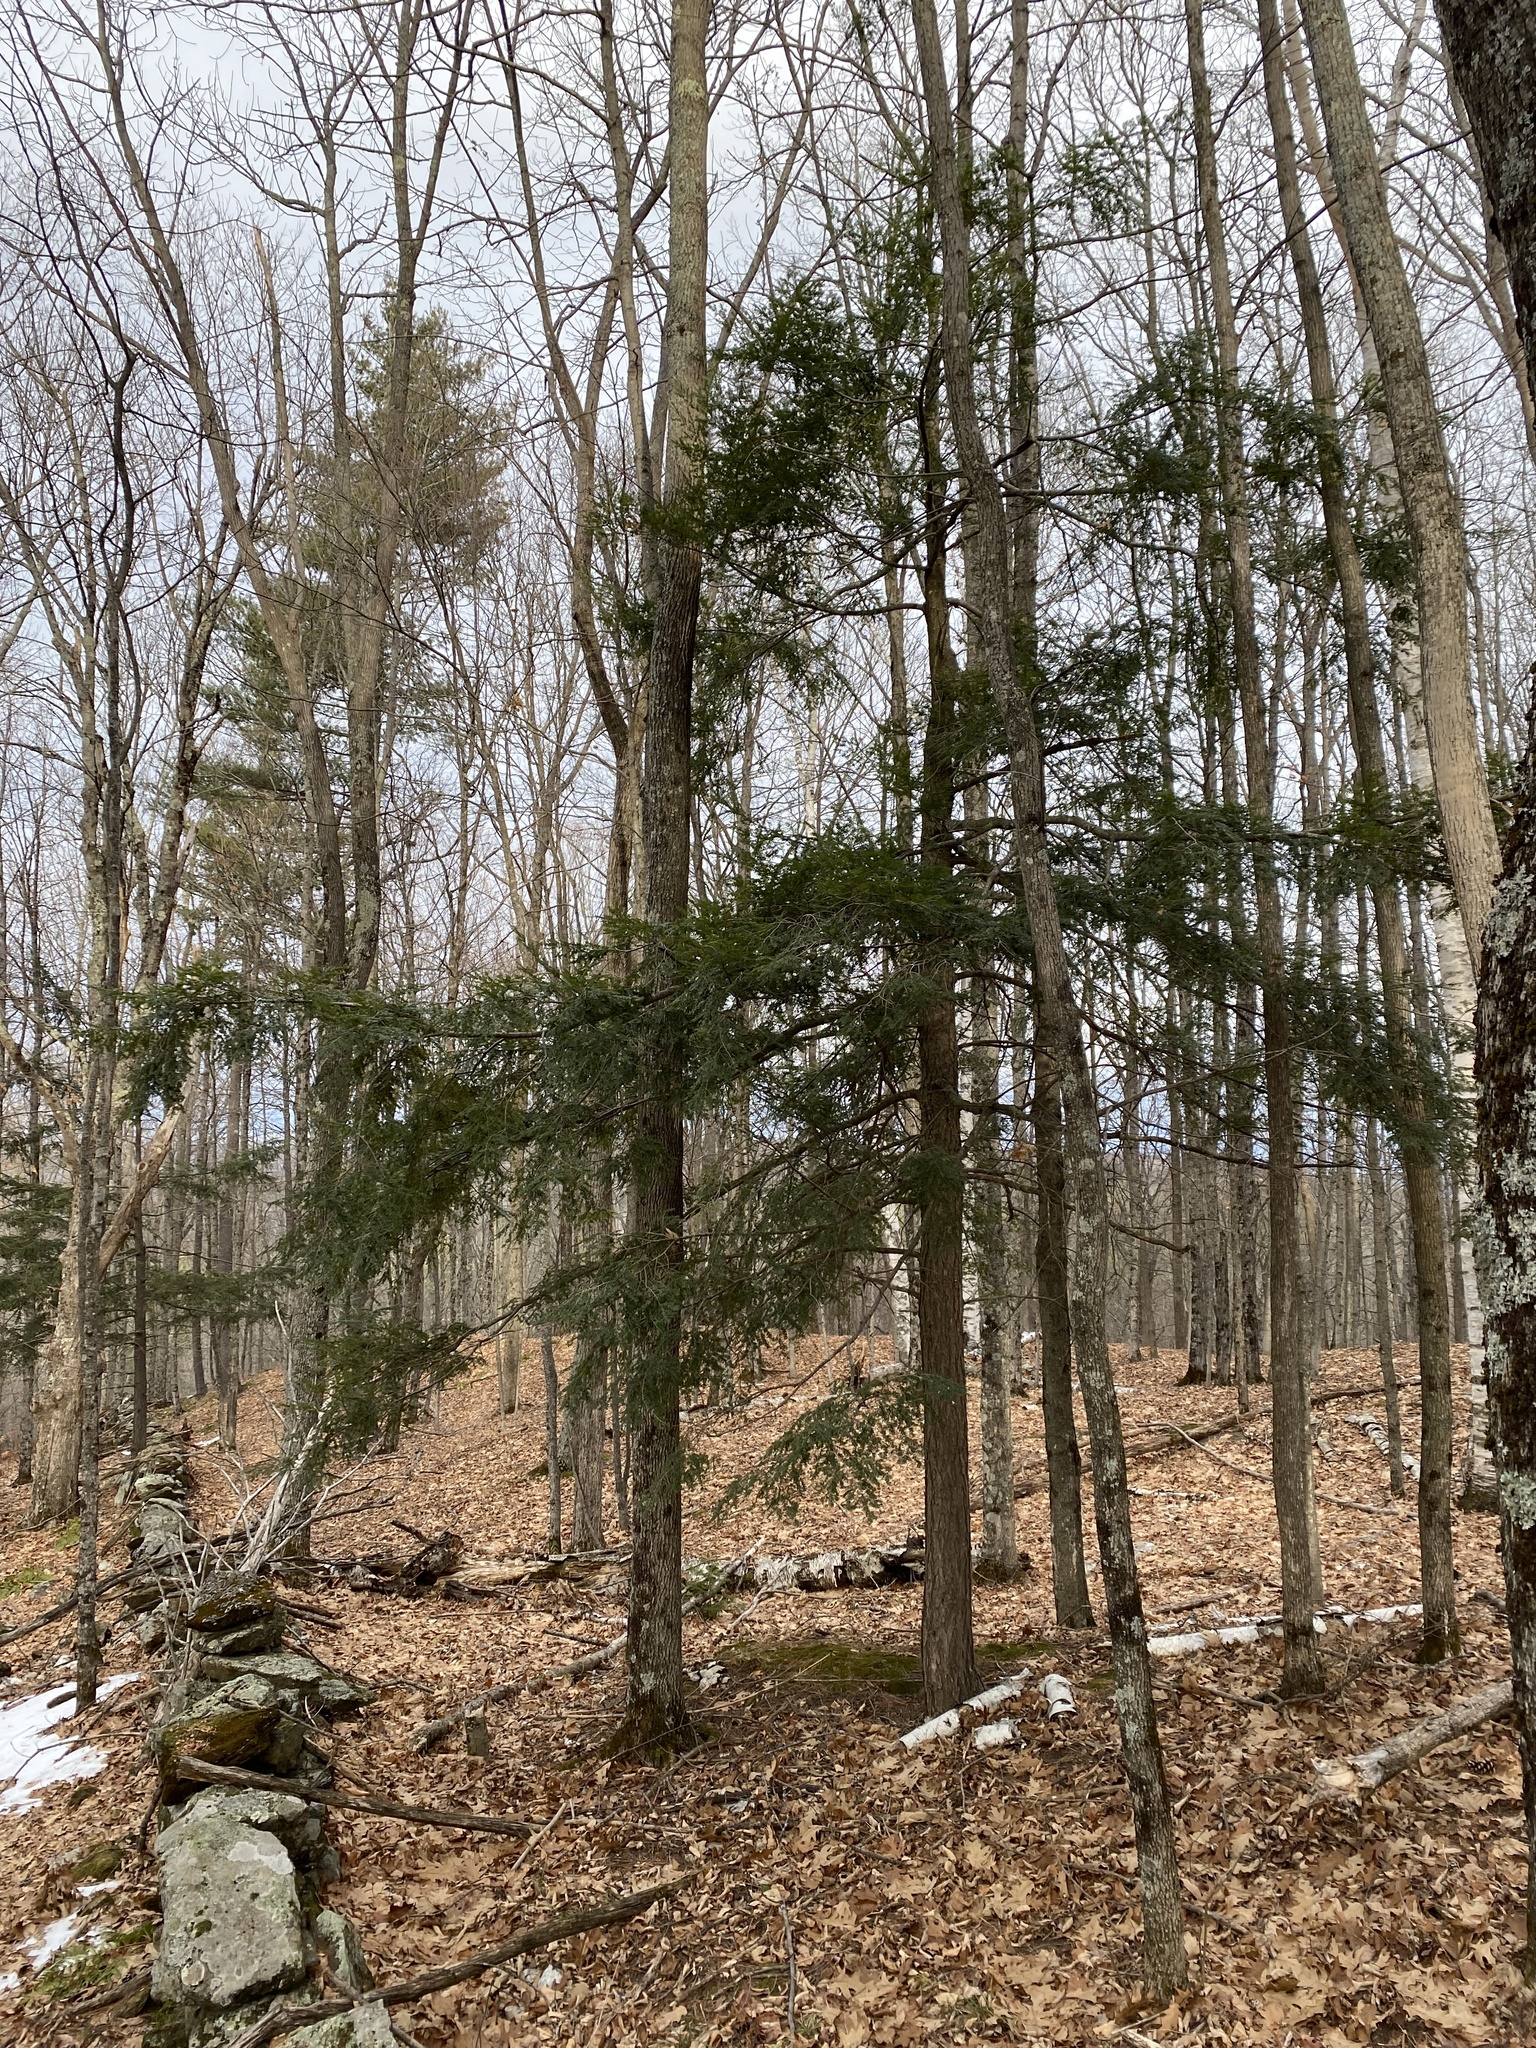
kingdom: Plantae
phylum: Tracheophyta
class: Pinopsida
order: Pinales
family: Pinaceae
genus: Tsuga
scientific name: Tsuga canadensis
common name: Eastern hemlock
